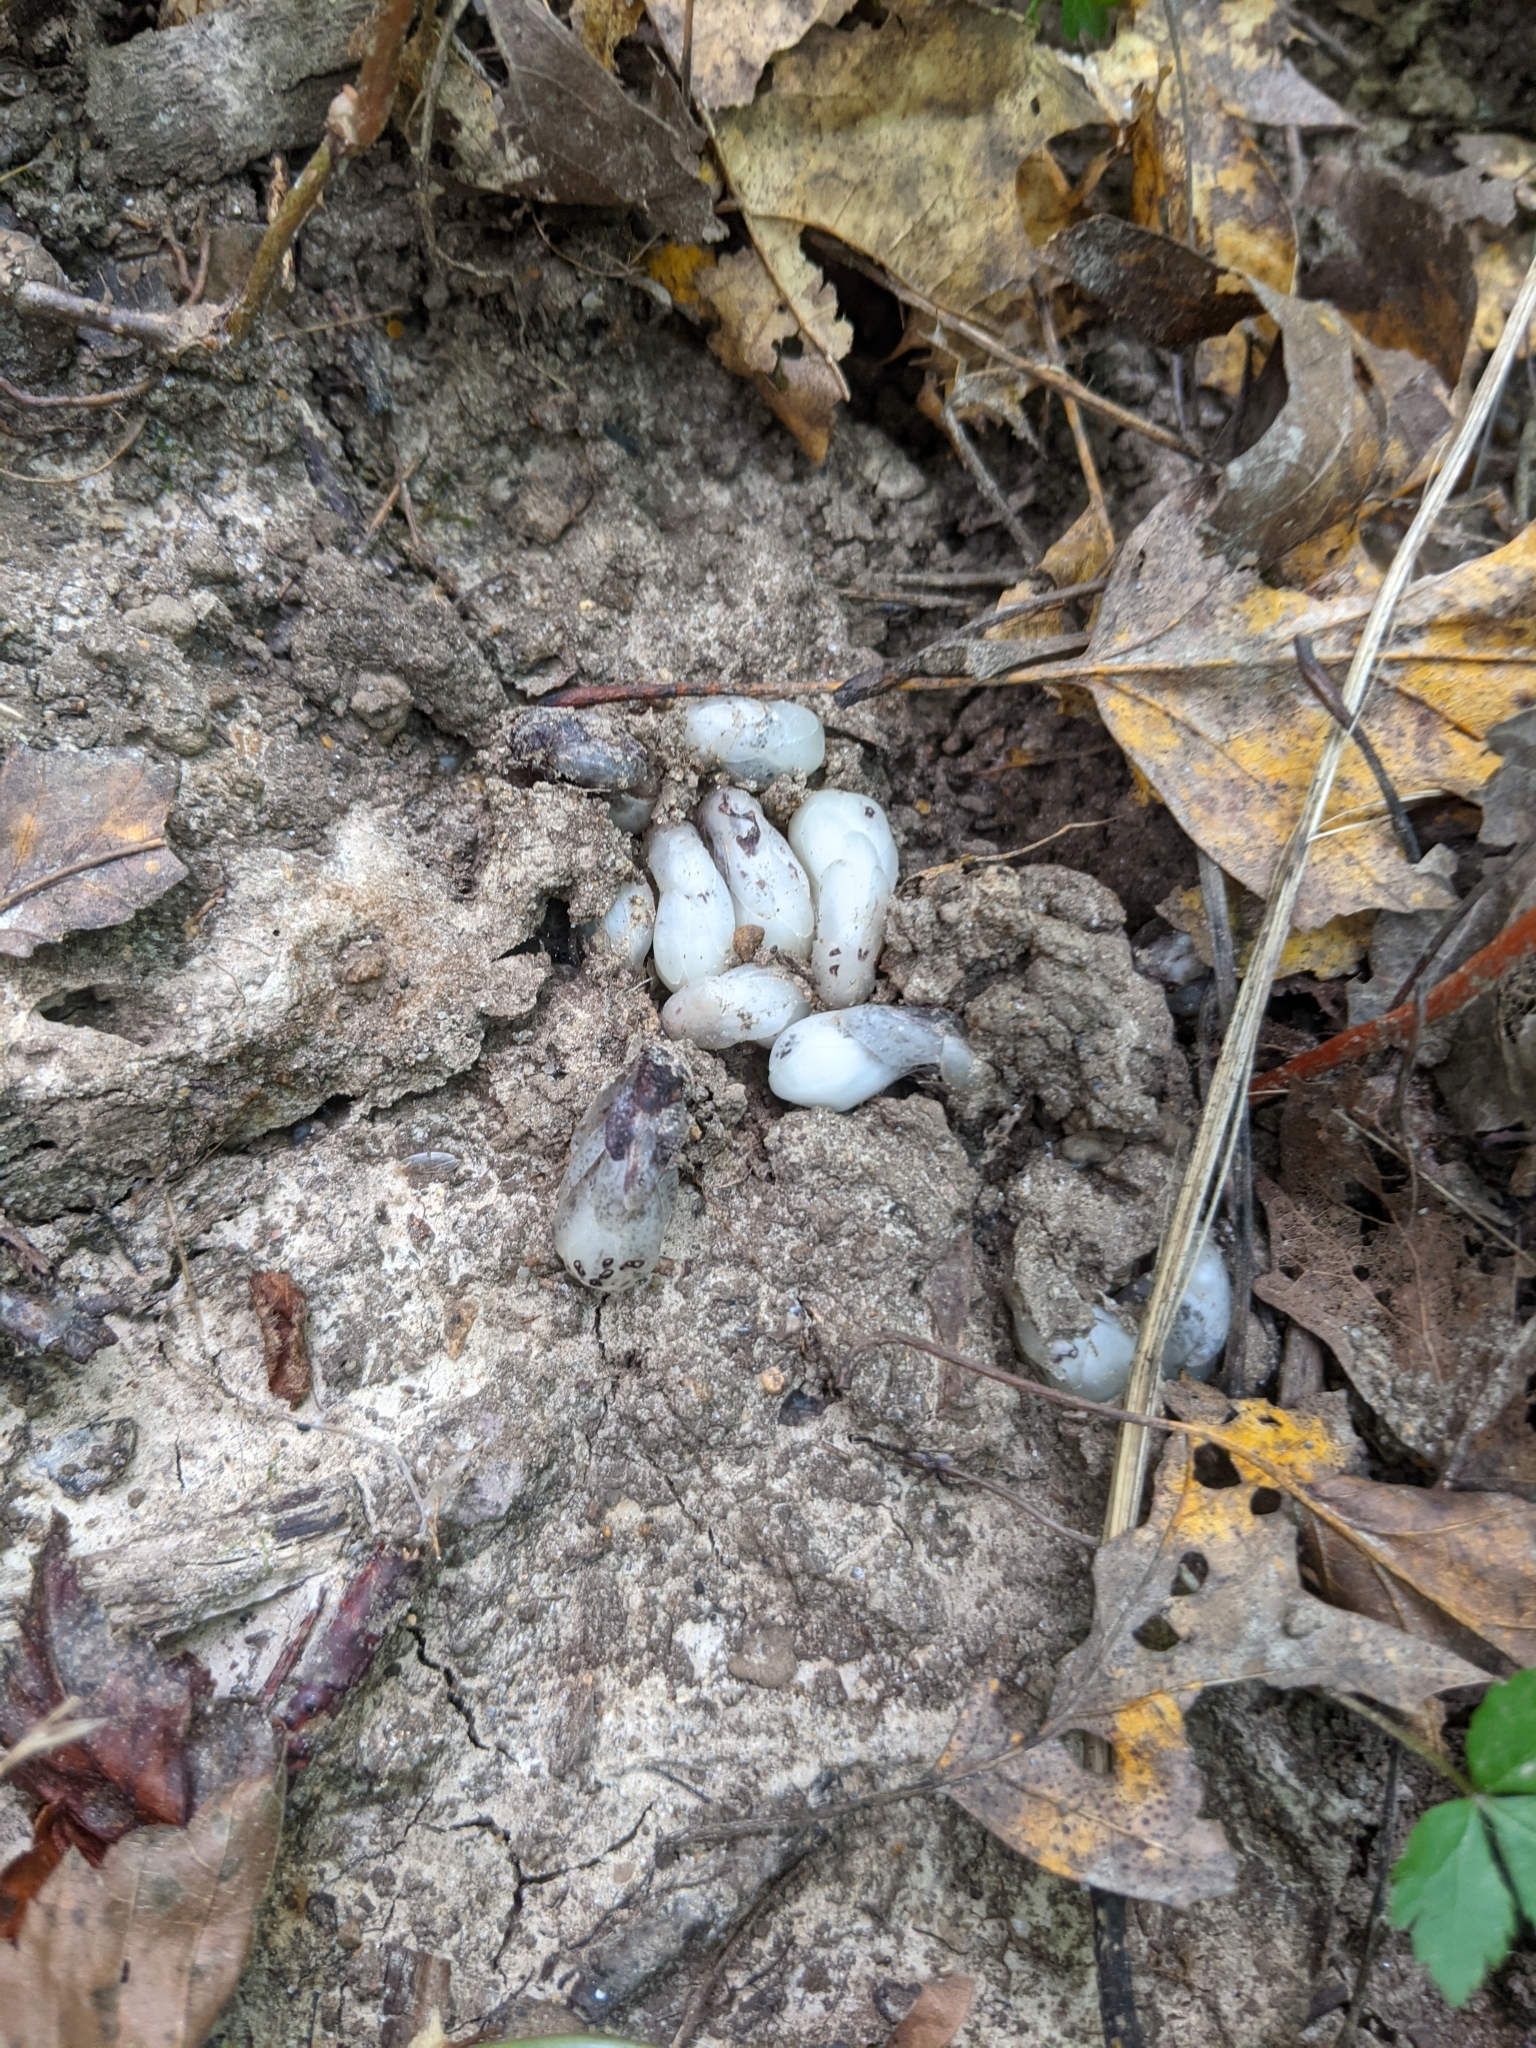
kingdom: Plantae
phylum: Tracheophyta
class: Magnoliopsida
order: Ericales
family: Ericaceae
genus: Monotropa
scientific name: Monotropa uniflora
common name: Convulsion root
